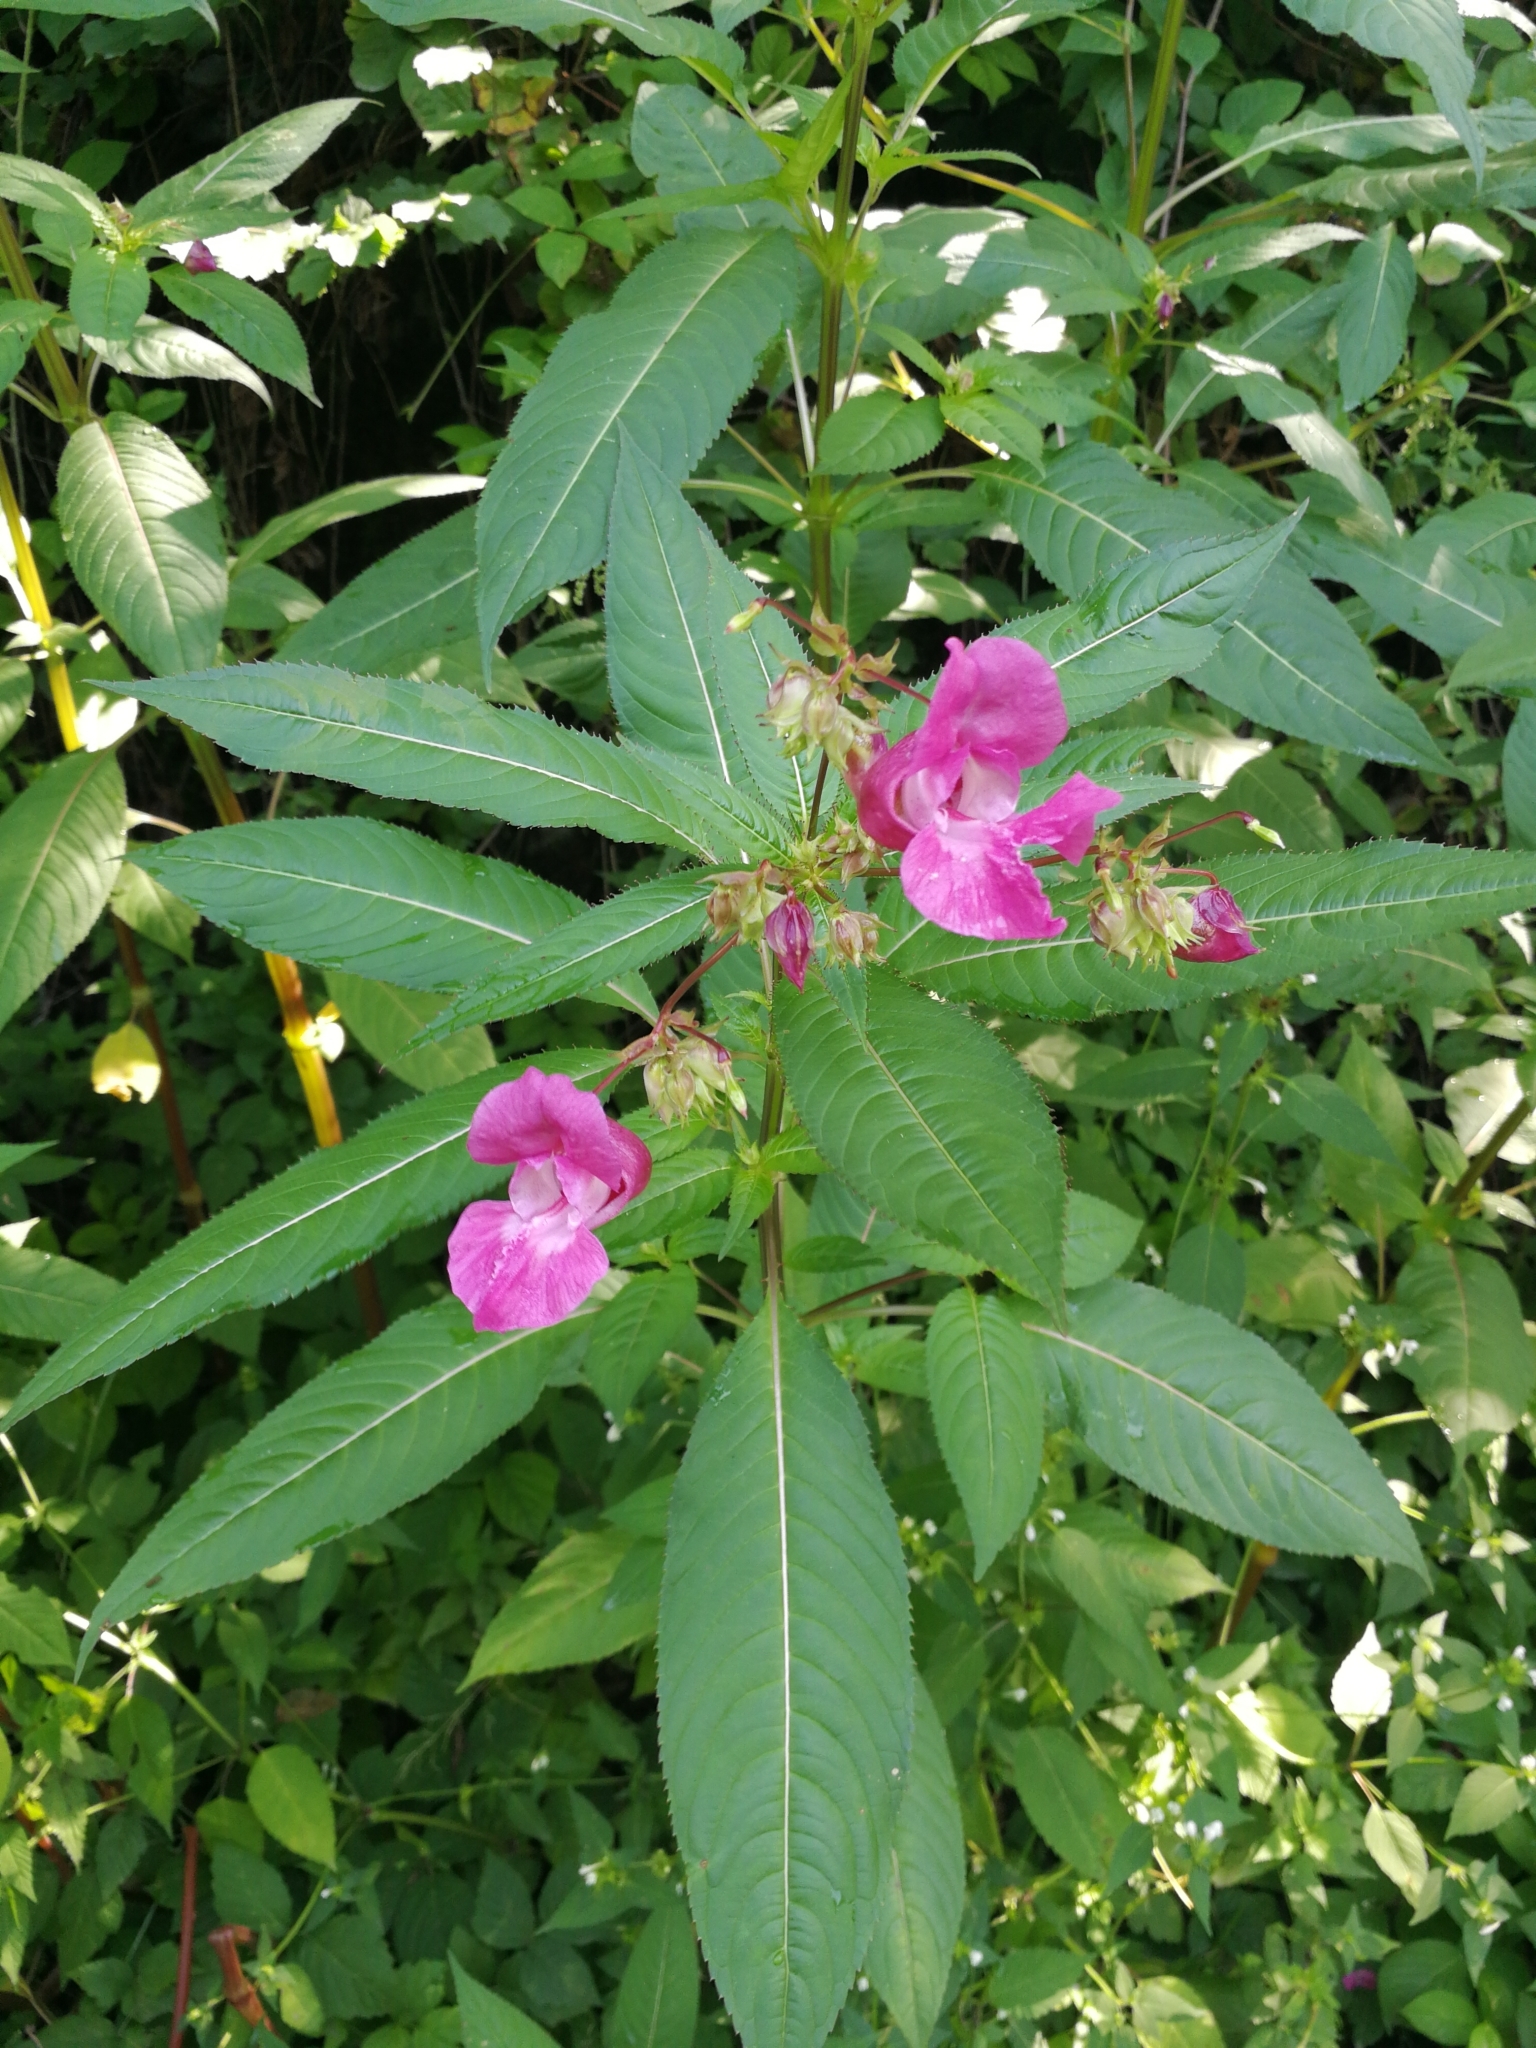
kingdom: Plantae
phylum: Tracheophyta
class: Magnoliopsida
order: Ericales
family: Balsaminaceae
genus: Impatiens
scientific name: Impatiens glandulifera
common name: Himalayan balsam
